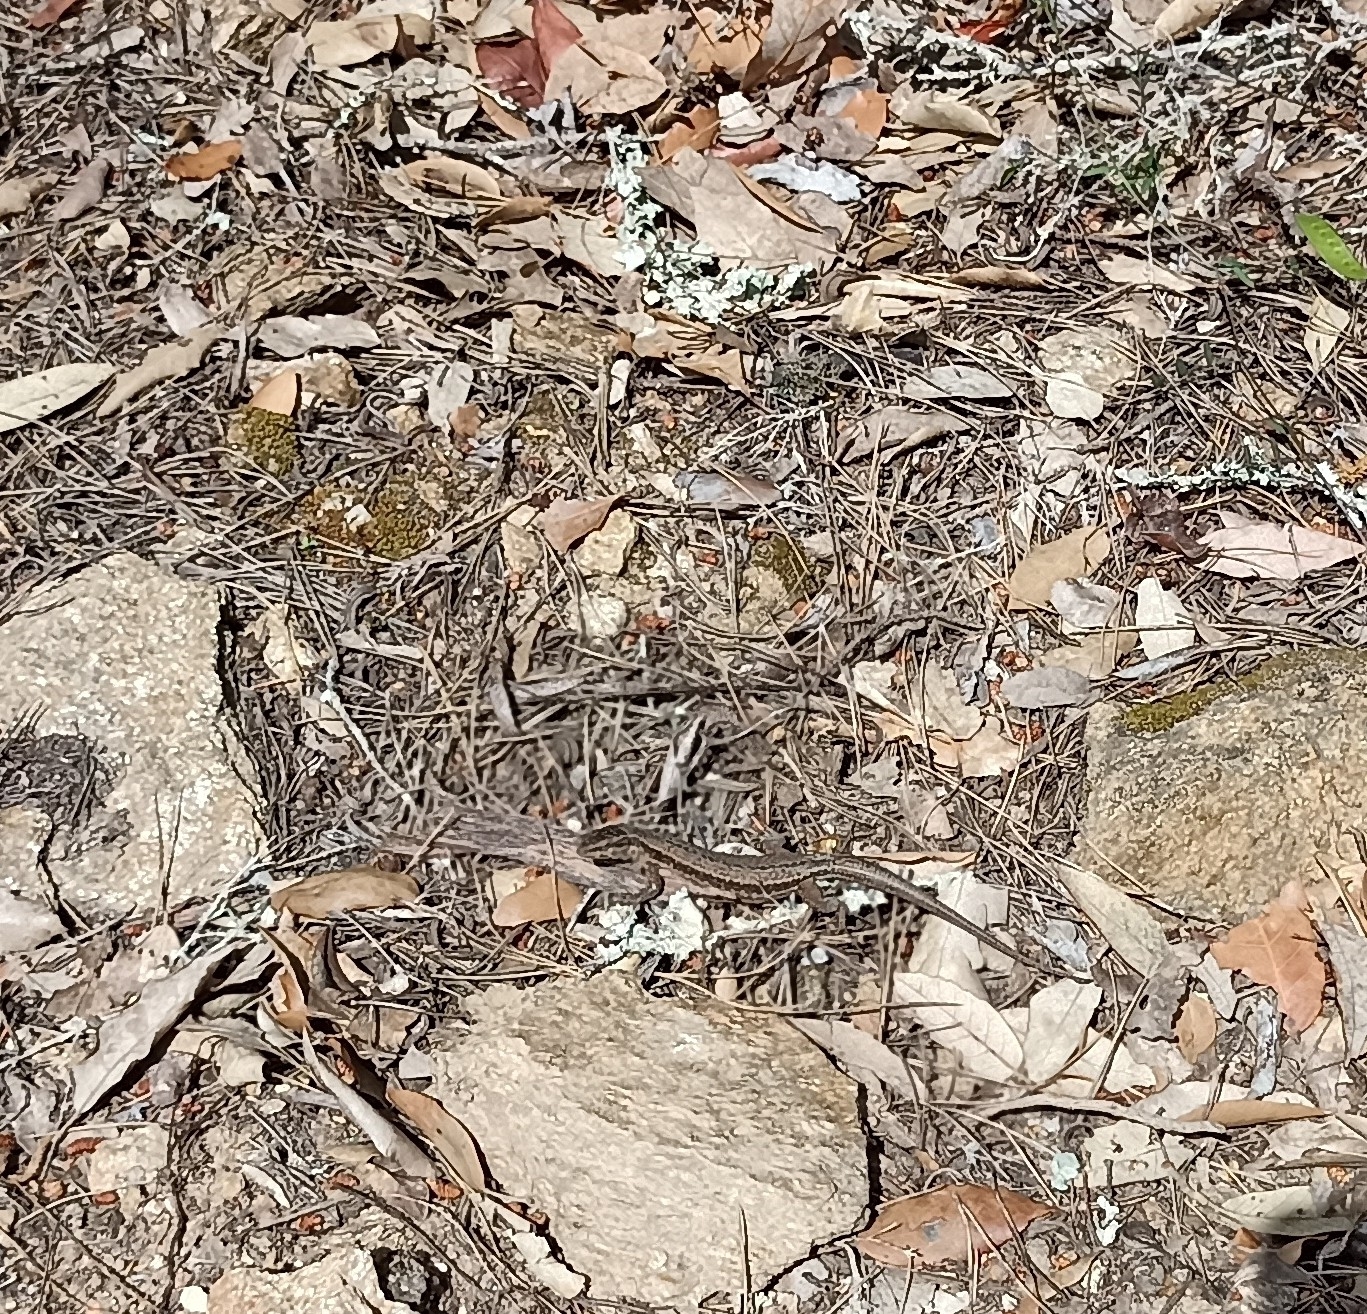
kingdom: Animalia
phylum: Chordata
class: Squamata
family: Lacertidae
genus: Podarcis
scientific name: Podarcis muralis
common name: Common wall lizard
